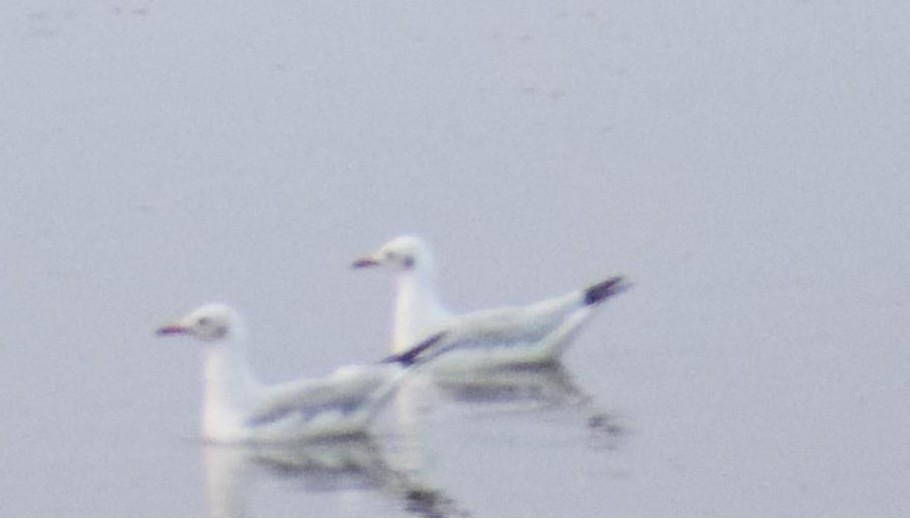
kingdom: Animalia
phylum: Chordata
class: Aves
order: Charadriiformes
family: Laridae
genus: Chroicocephalus
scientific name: Chroicocephalus ridibundus
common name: Black-headed gull
